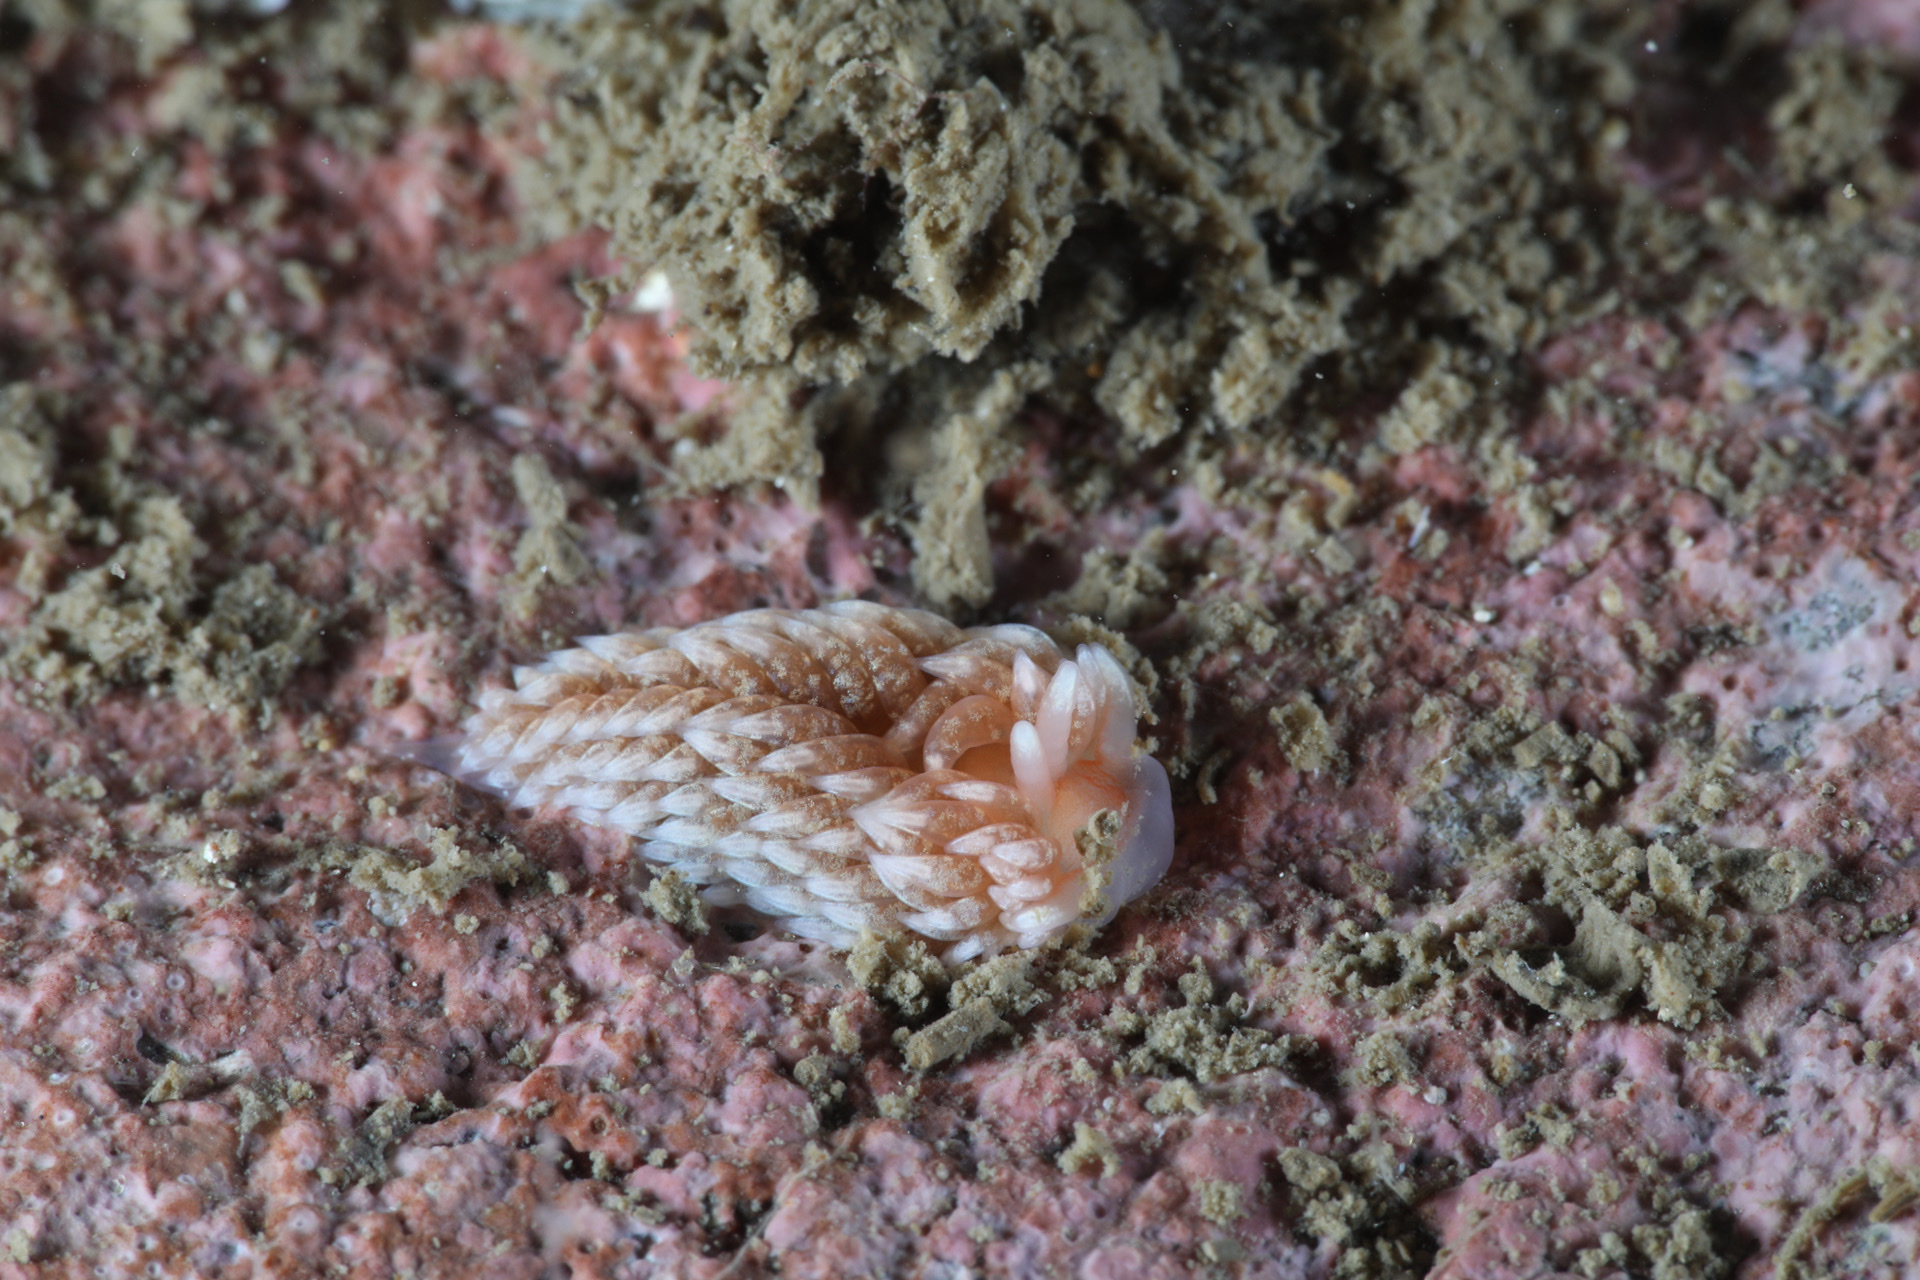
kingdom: Animalia
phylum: Mollusca
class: Gastropoda
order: Nudibranchia
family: Aeolidiidae
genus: Aeolidiella
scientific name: Aeolidiella glauca
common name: Orange-brown aeolid
